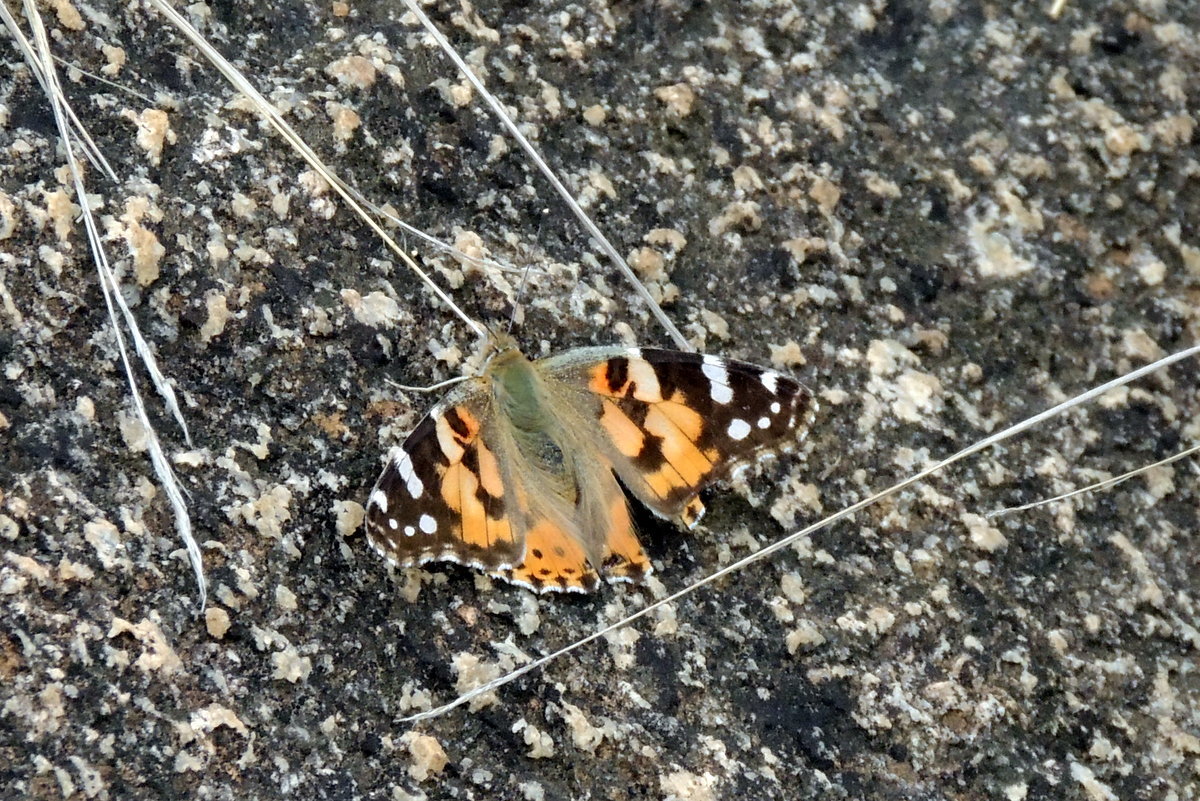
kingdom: Animalia
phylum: Arthropoda
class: Insecta
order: Lepidoptera
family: Nymphalidae
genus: Vanessa
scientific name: Vanessa cardui
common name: Painted lady
